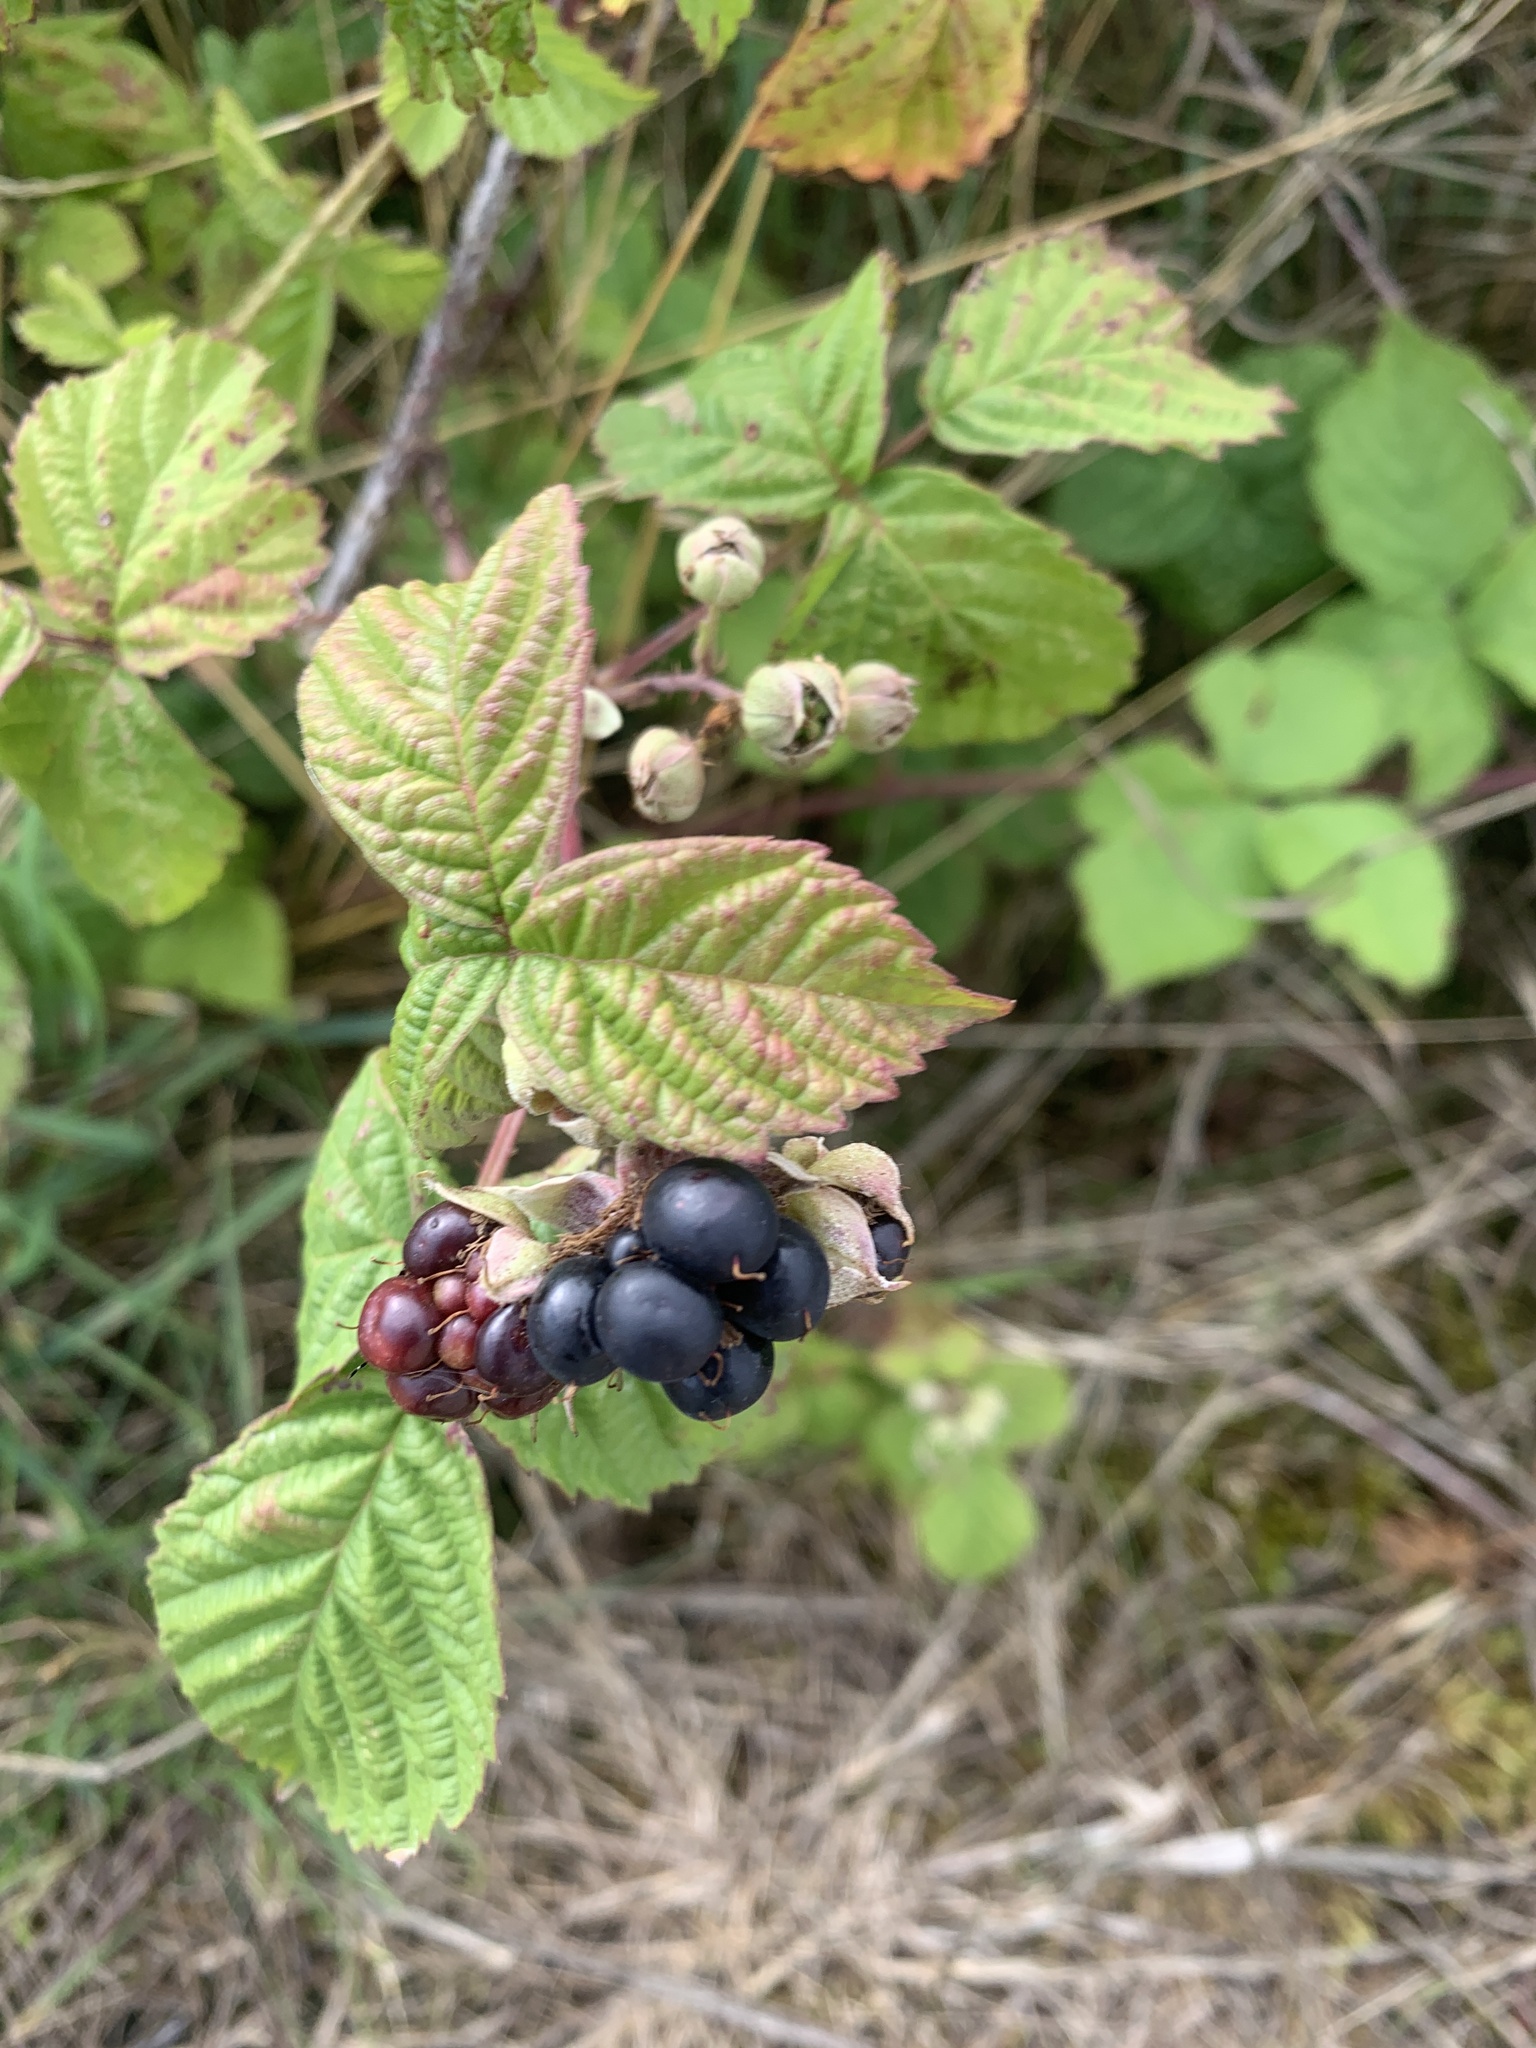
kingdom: Plantae
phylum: Tracheophyta
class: Magnoliopsida
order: Rosales
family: Rosaceae
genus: Rubus
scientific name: Rubus fruticosus
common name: Blackberry, bramble
